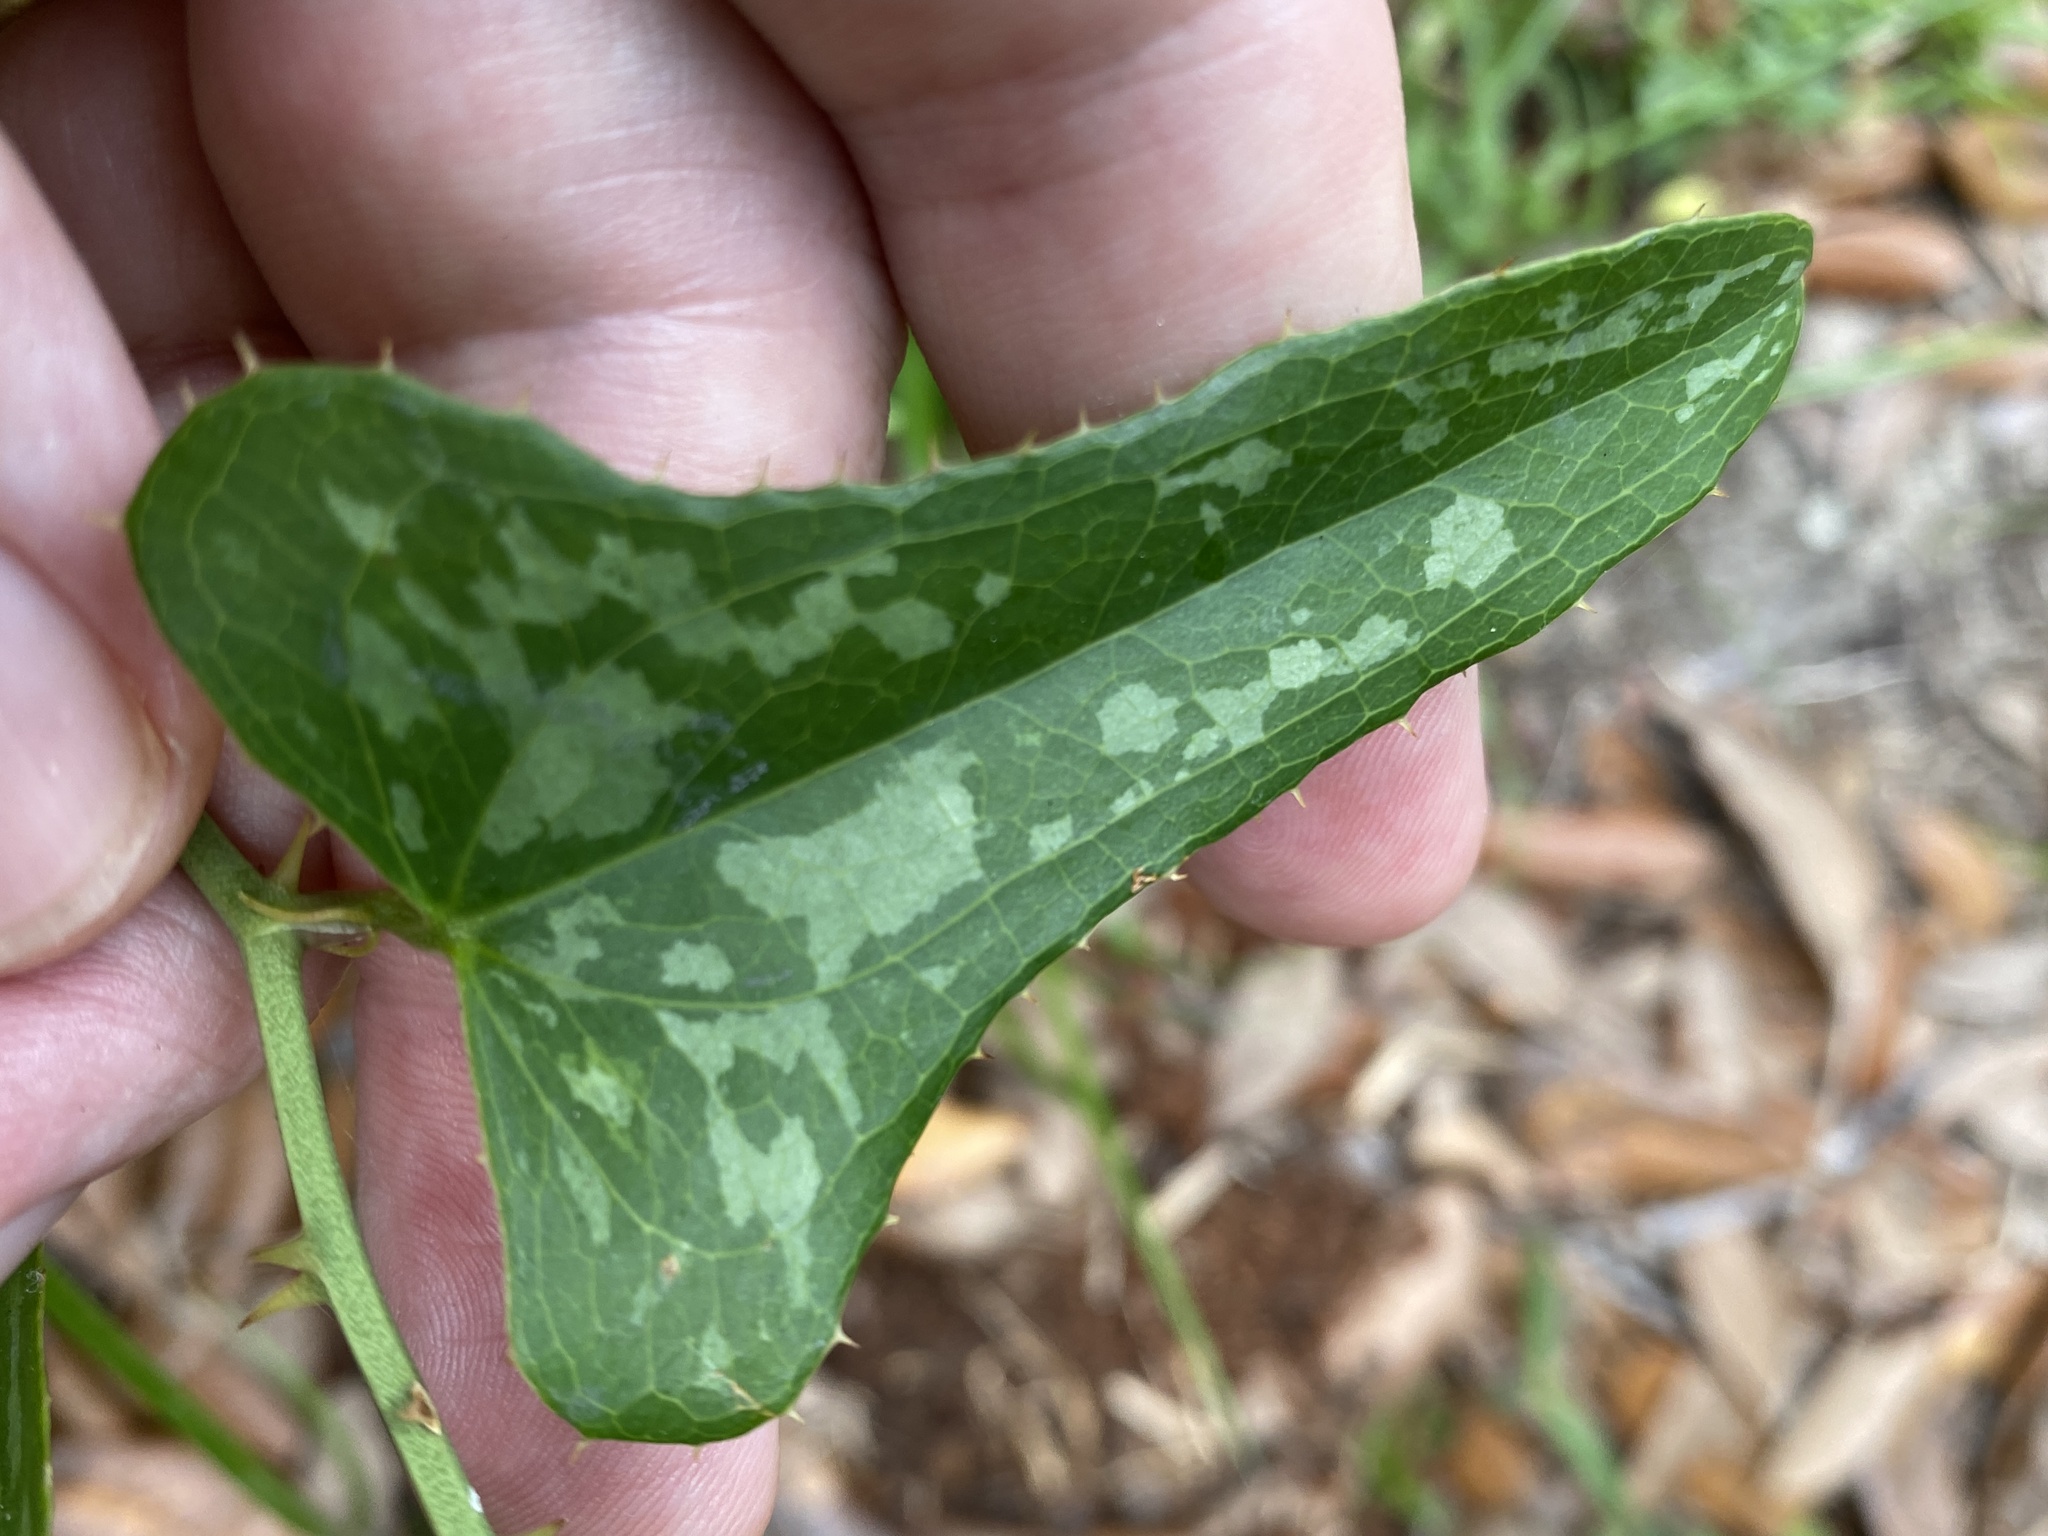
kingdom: Plantae
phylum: Tracheophyta
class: Liliopsida
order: Liliales
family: Smilacaceae
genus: Smilax
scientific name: Smilax bona-nox
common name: Catbrier
